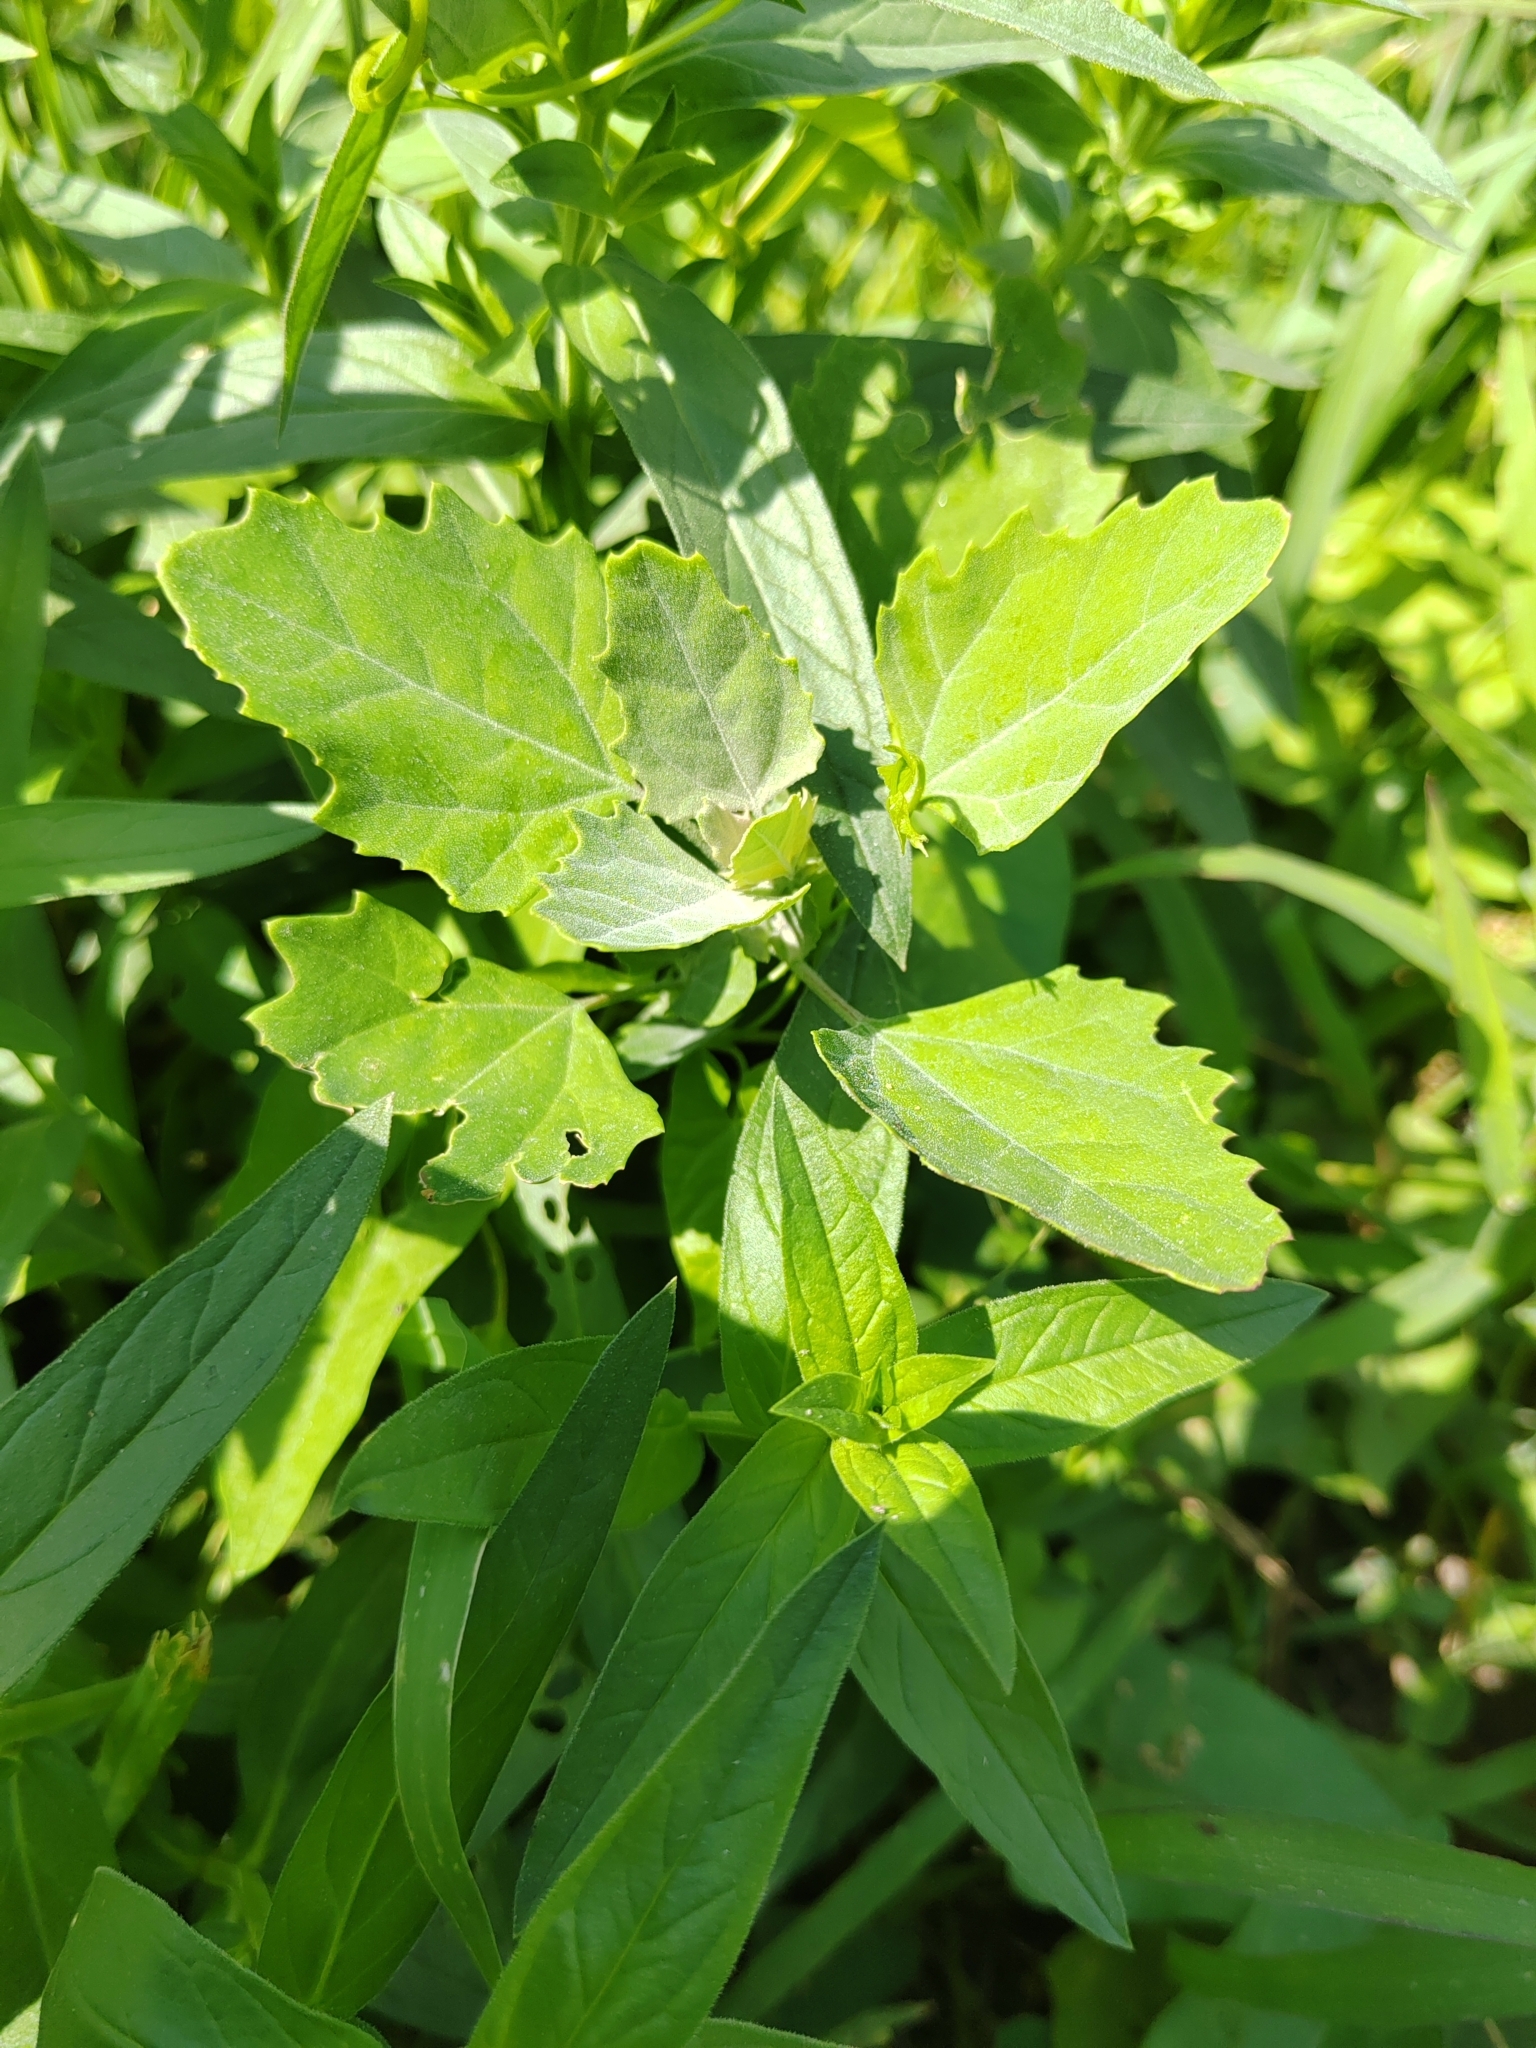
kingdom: Plantae
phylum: Tracheophyta
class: Magnoliopsida
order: Caryophyllales
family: Amaranthaceae
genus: Chenopodium
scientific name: Chenopodium album
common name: Fat-hen
